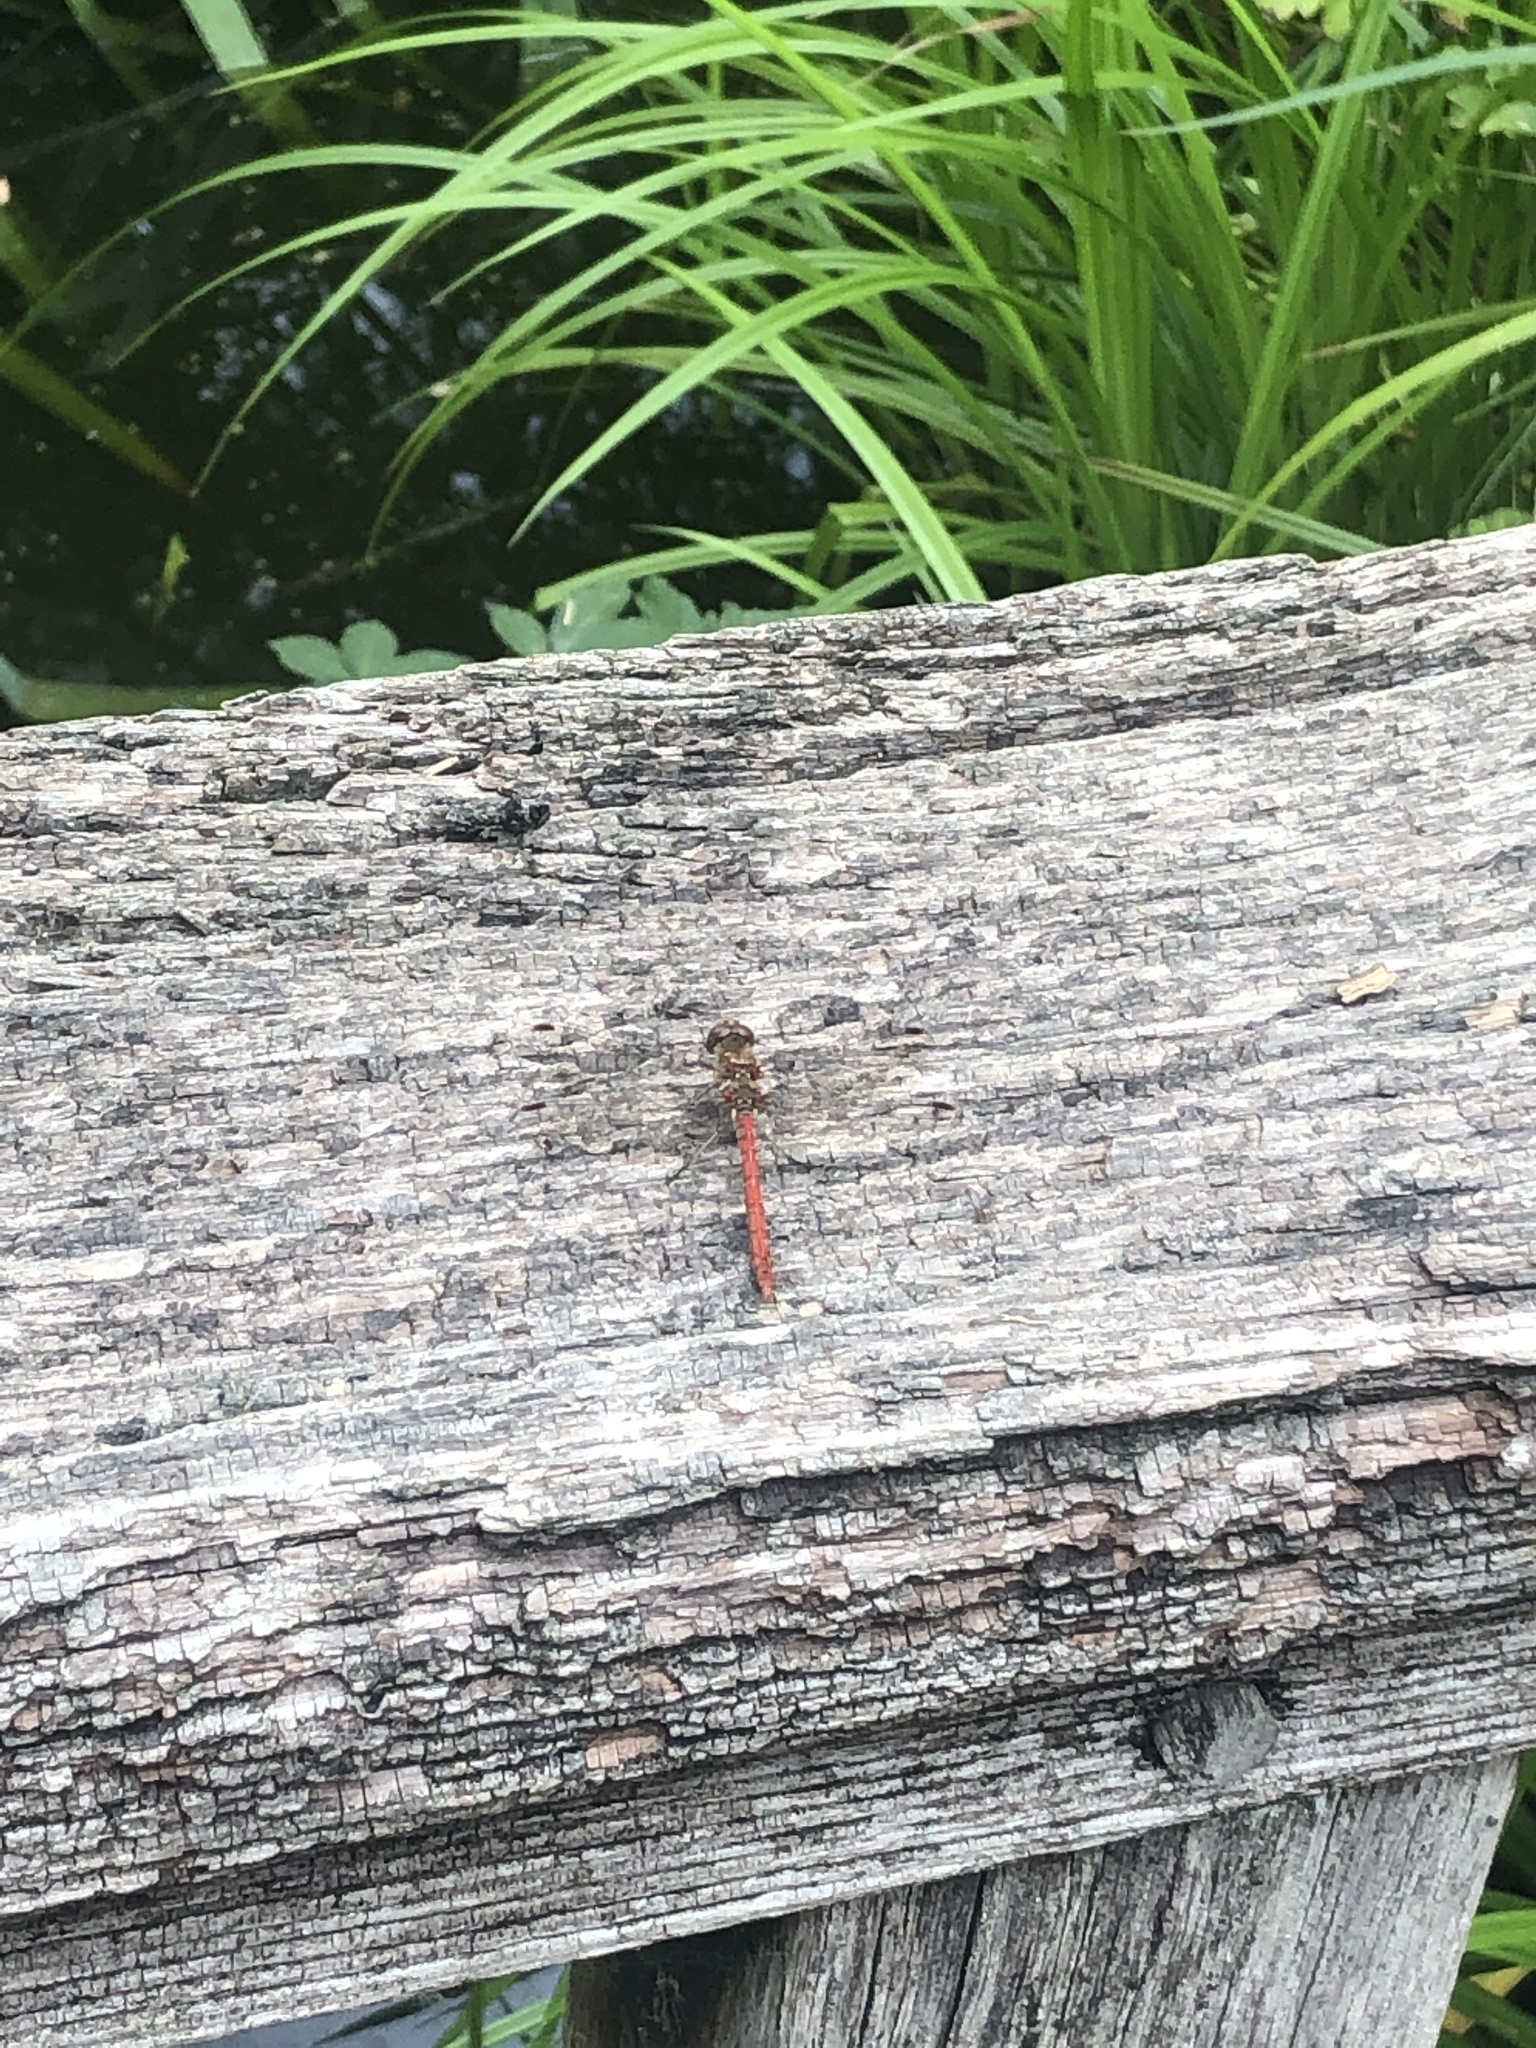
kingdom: Animalia
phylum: Arthropoda
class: Insecta
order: Odonata
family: Libellulidae
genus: Sympetrum
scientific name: Sympetrum striolatum
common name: Common darter
